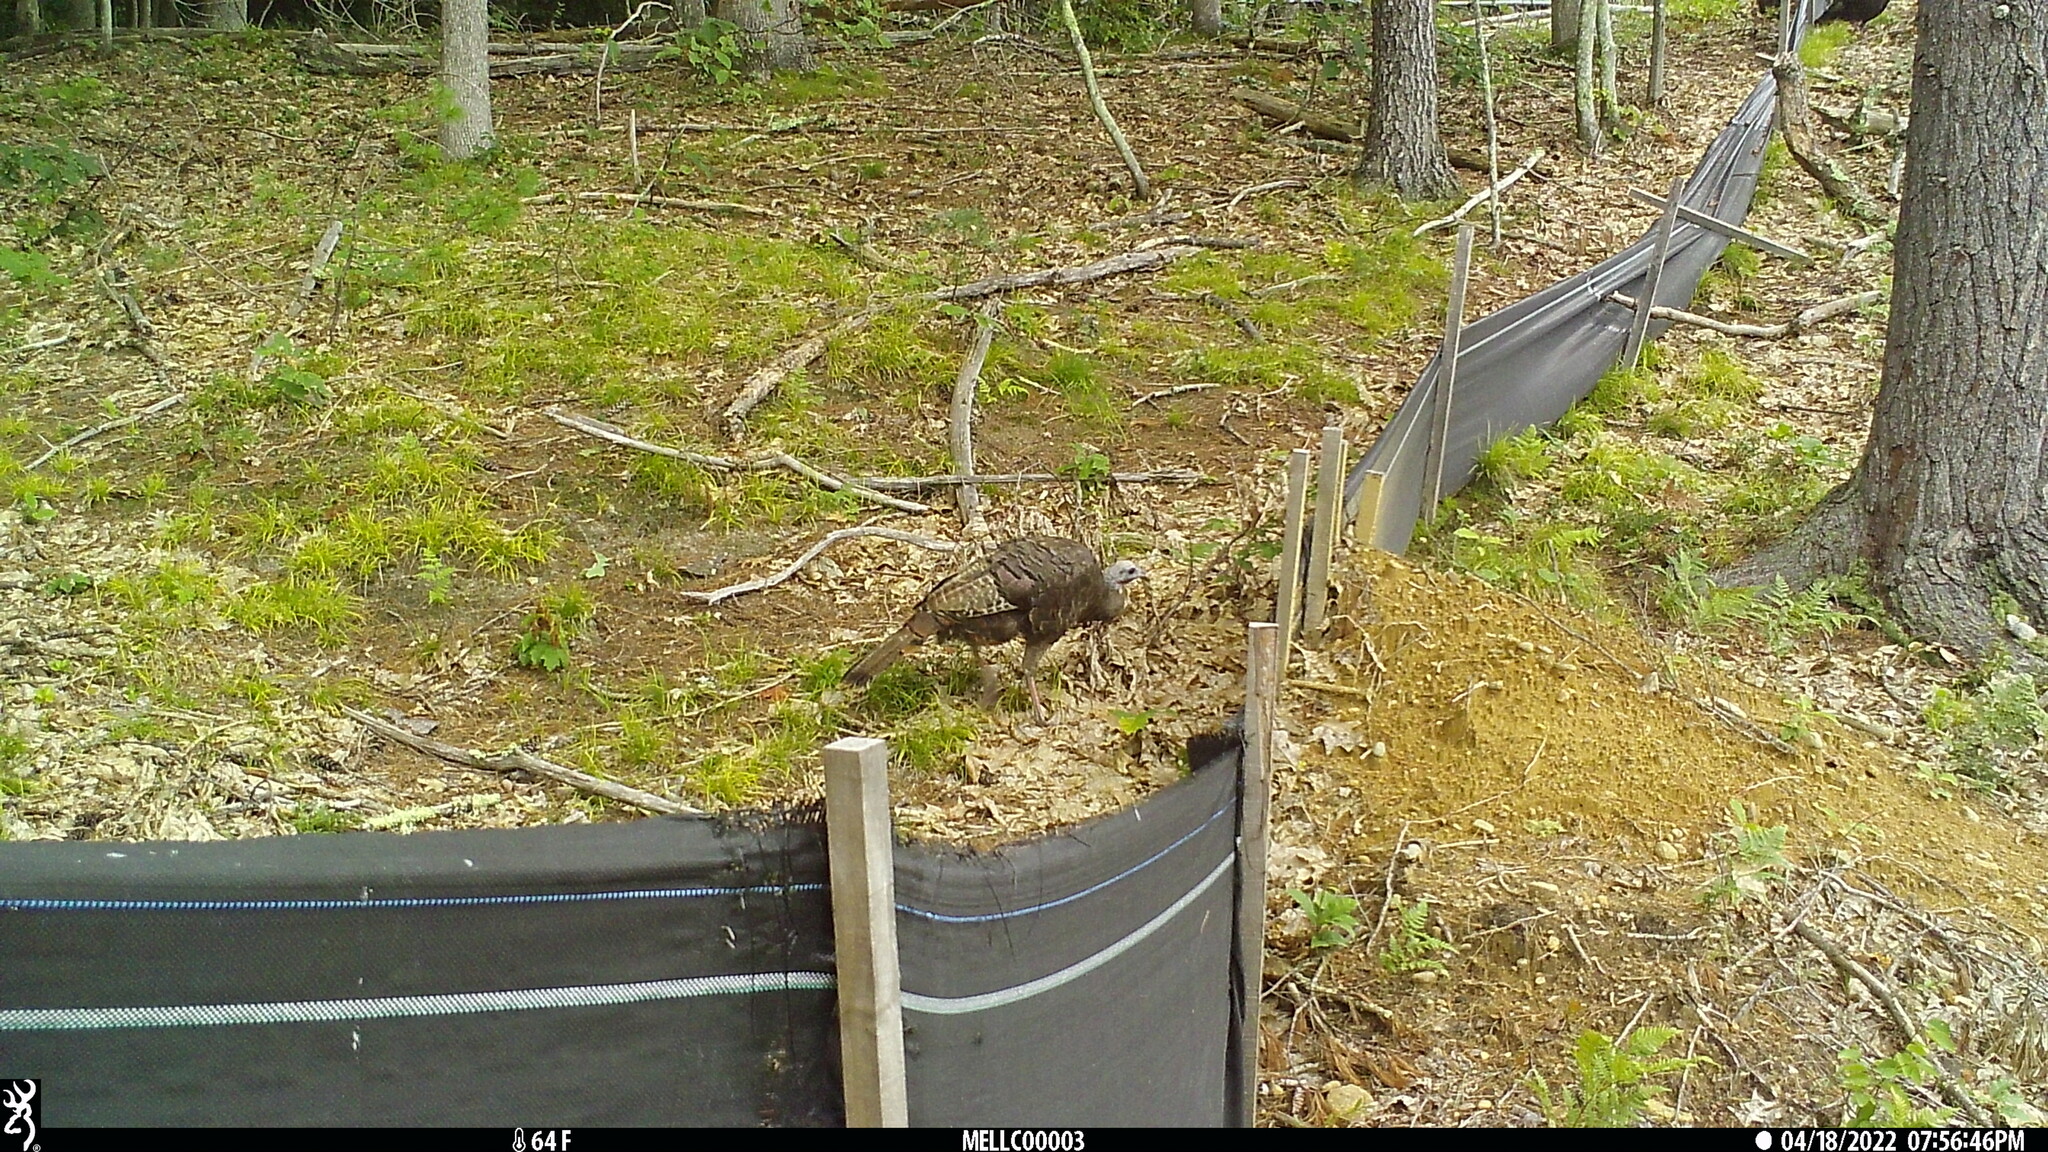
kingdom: Animalia
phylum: Chordata
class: Aves
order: Galliformes
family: Phasianidae
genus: Meleagris
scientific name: Meleagris gallopavo
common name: Wild turkey
